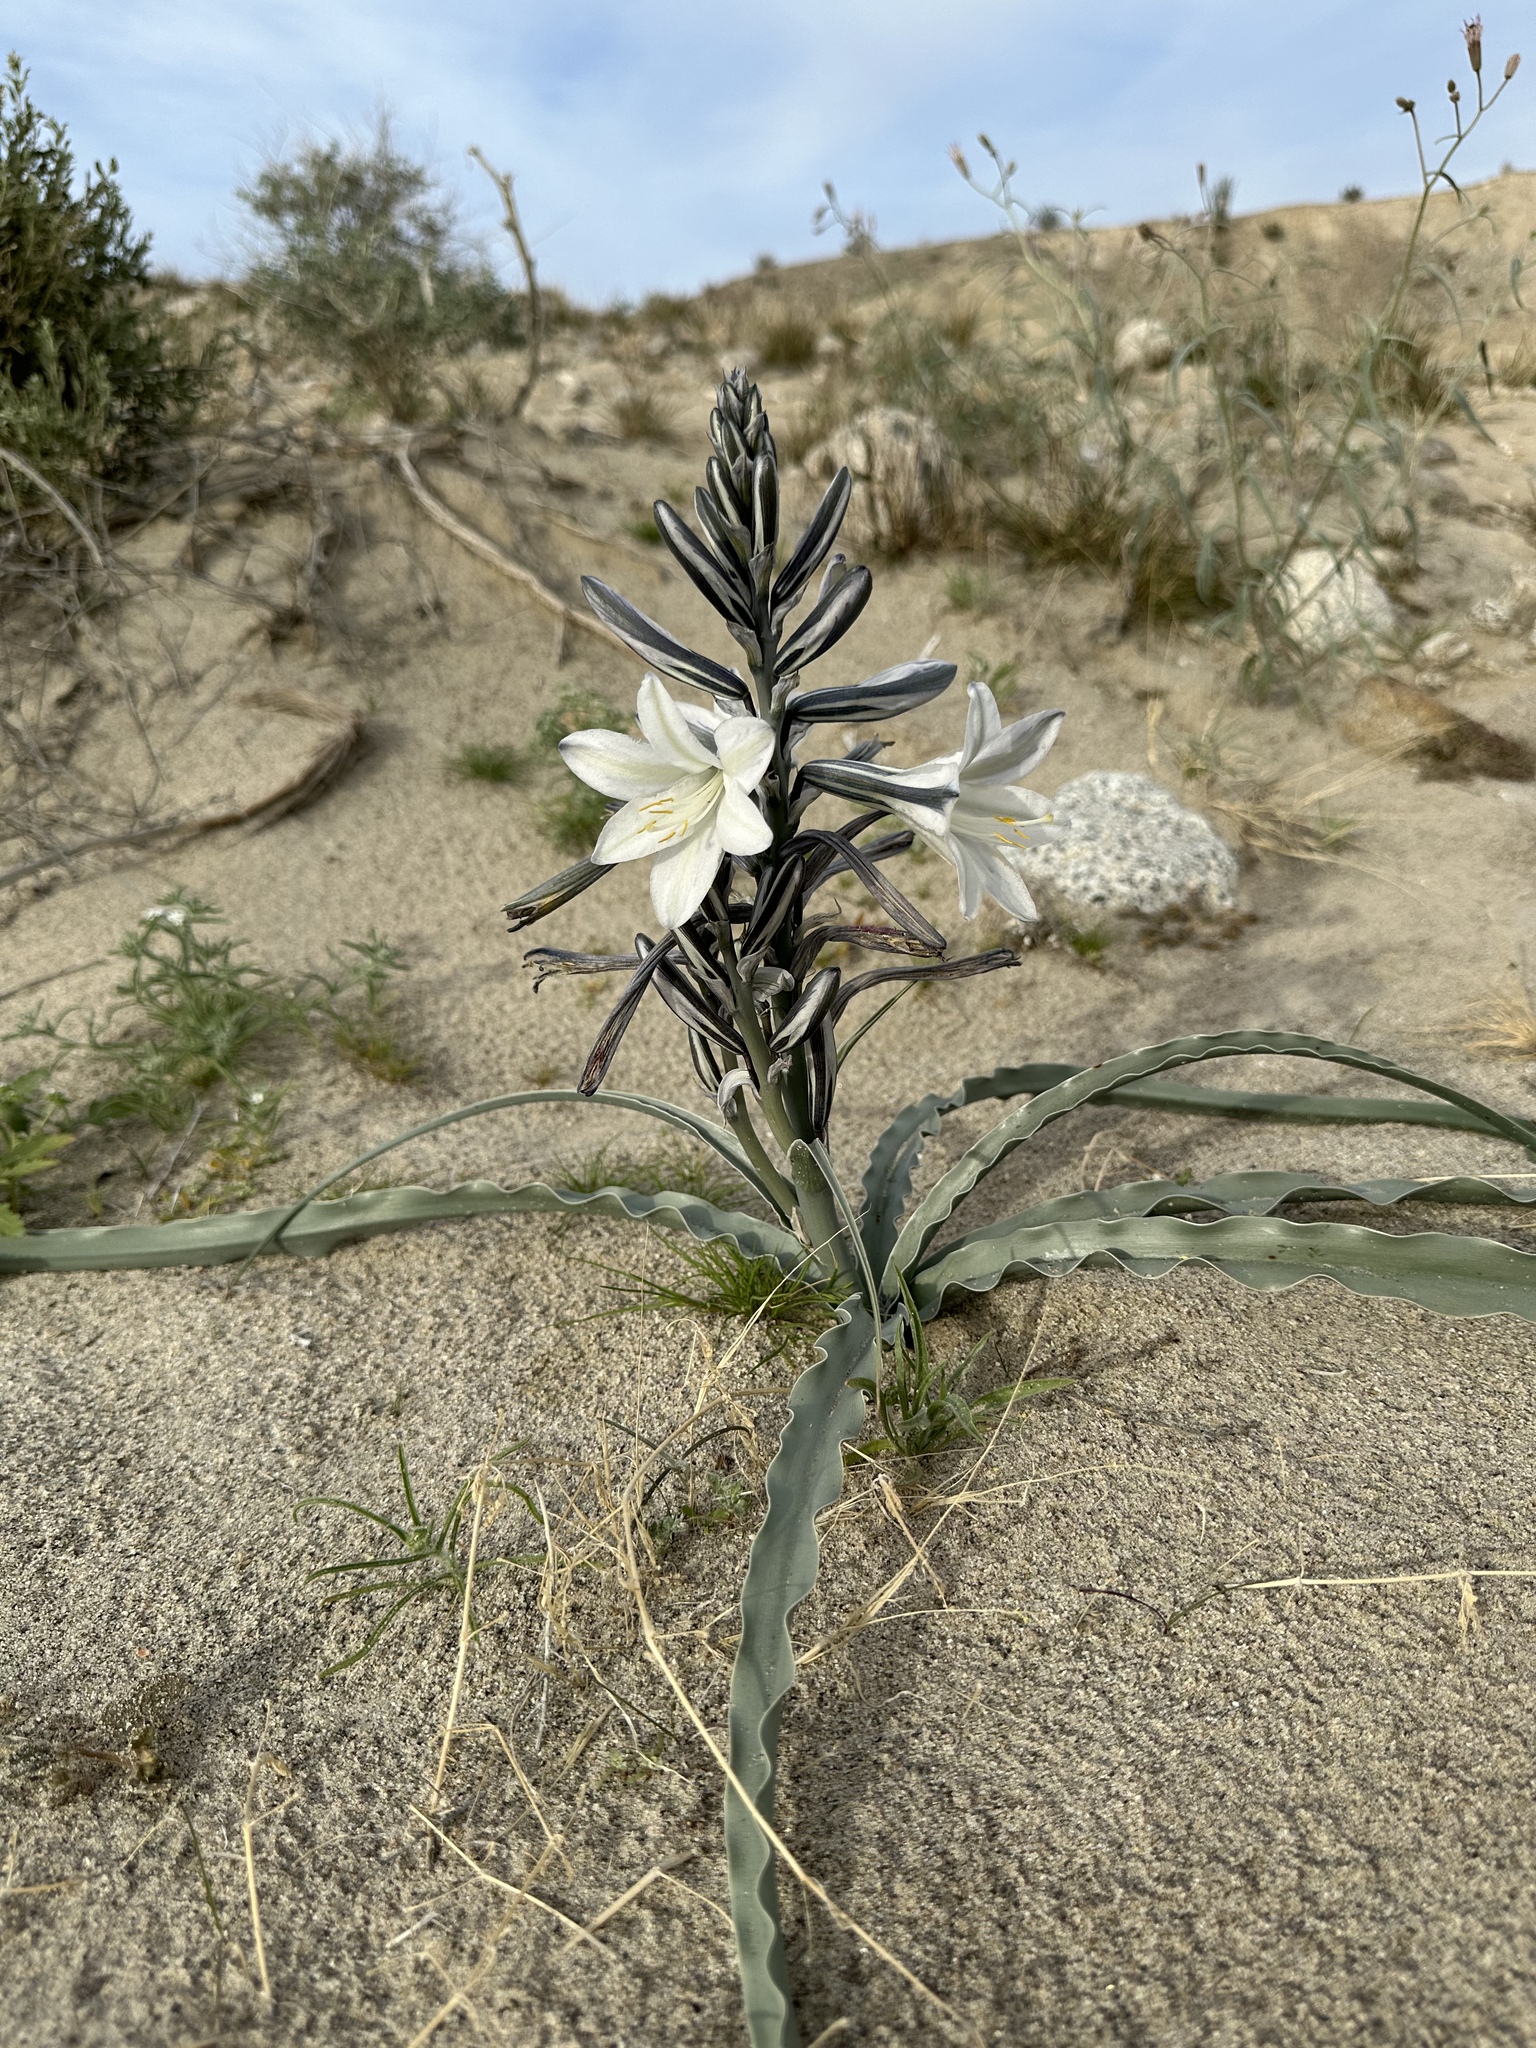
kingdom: Plantae
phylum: Tracheophyta
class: Liliopsida
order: Asparagales
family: Asparagaceae
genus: Hesperocallis
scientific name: Hesperocallis undulata
